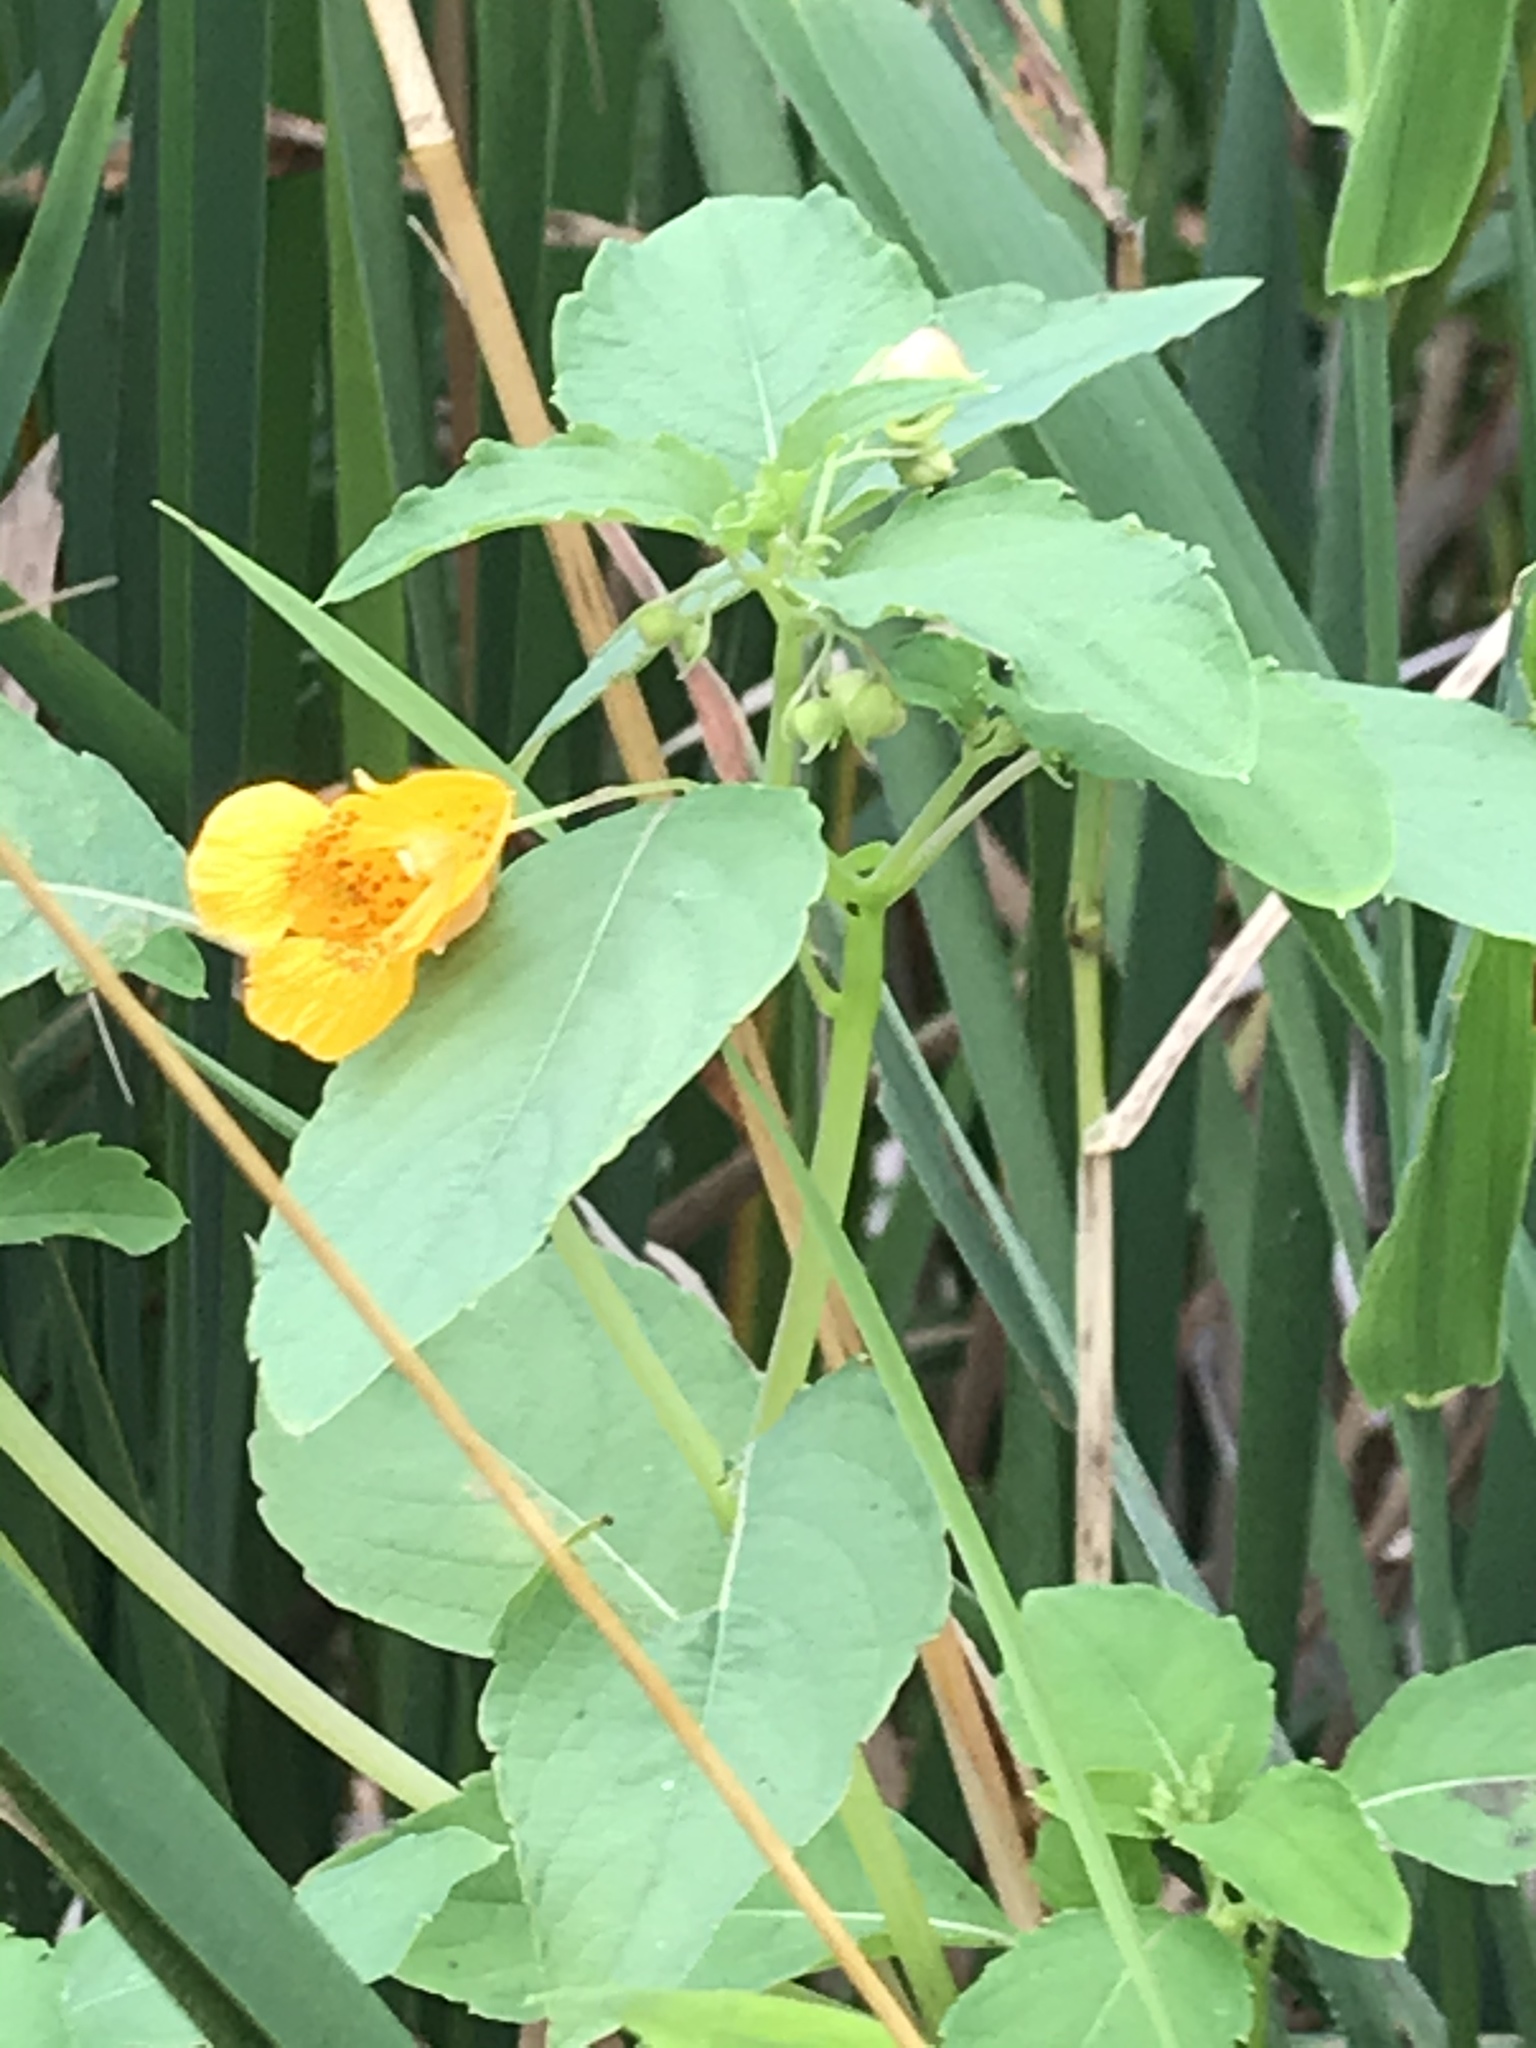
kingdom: Plantae
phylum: Tracheophyta
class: Magnoliopsida
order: Ericales
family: Balsaminaceae
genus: Impatiens
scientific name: Impatiens capensis
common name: Orange balsam
